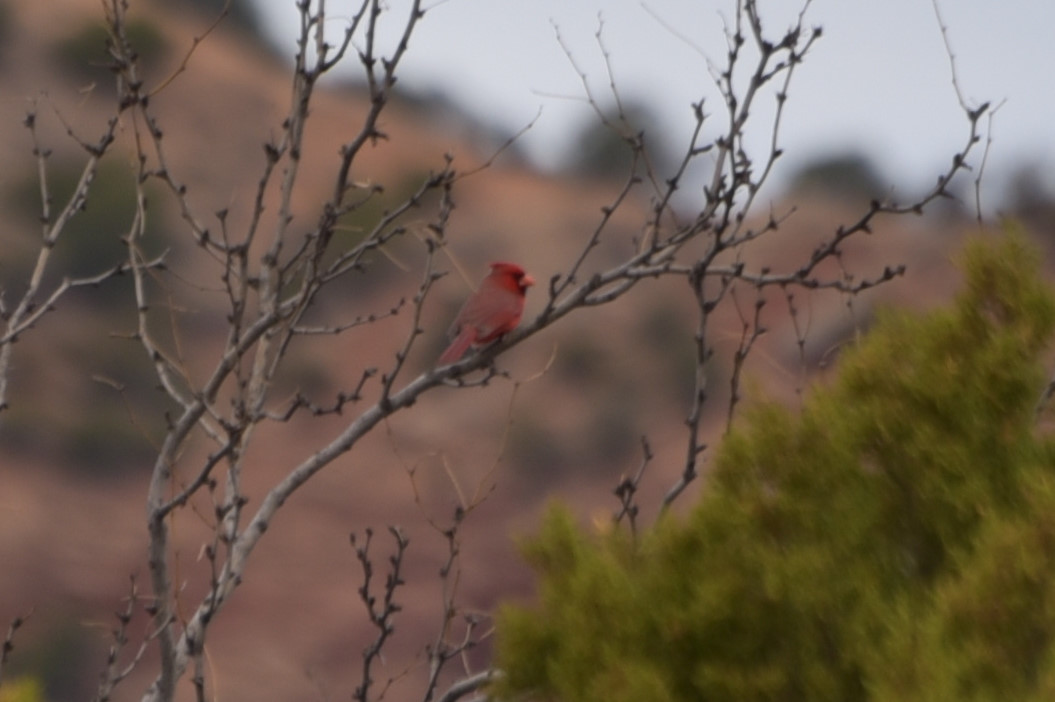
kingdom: Animalia
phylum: Chordata
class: Aves
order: Passeriformes
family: Cardinalidae
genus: Cardinalis
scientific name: Cardinalis cardinalis
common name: Northern cardinal
